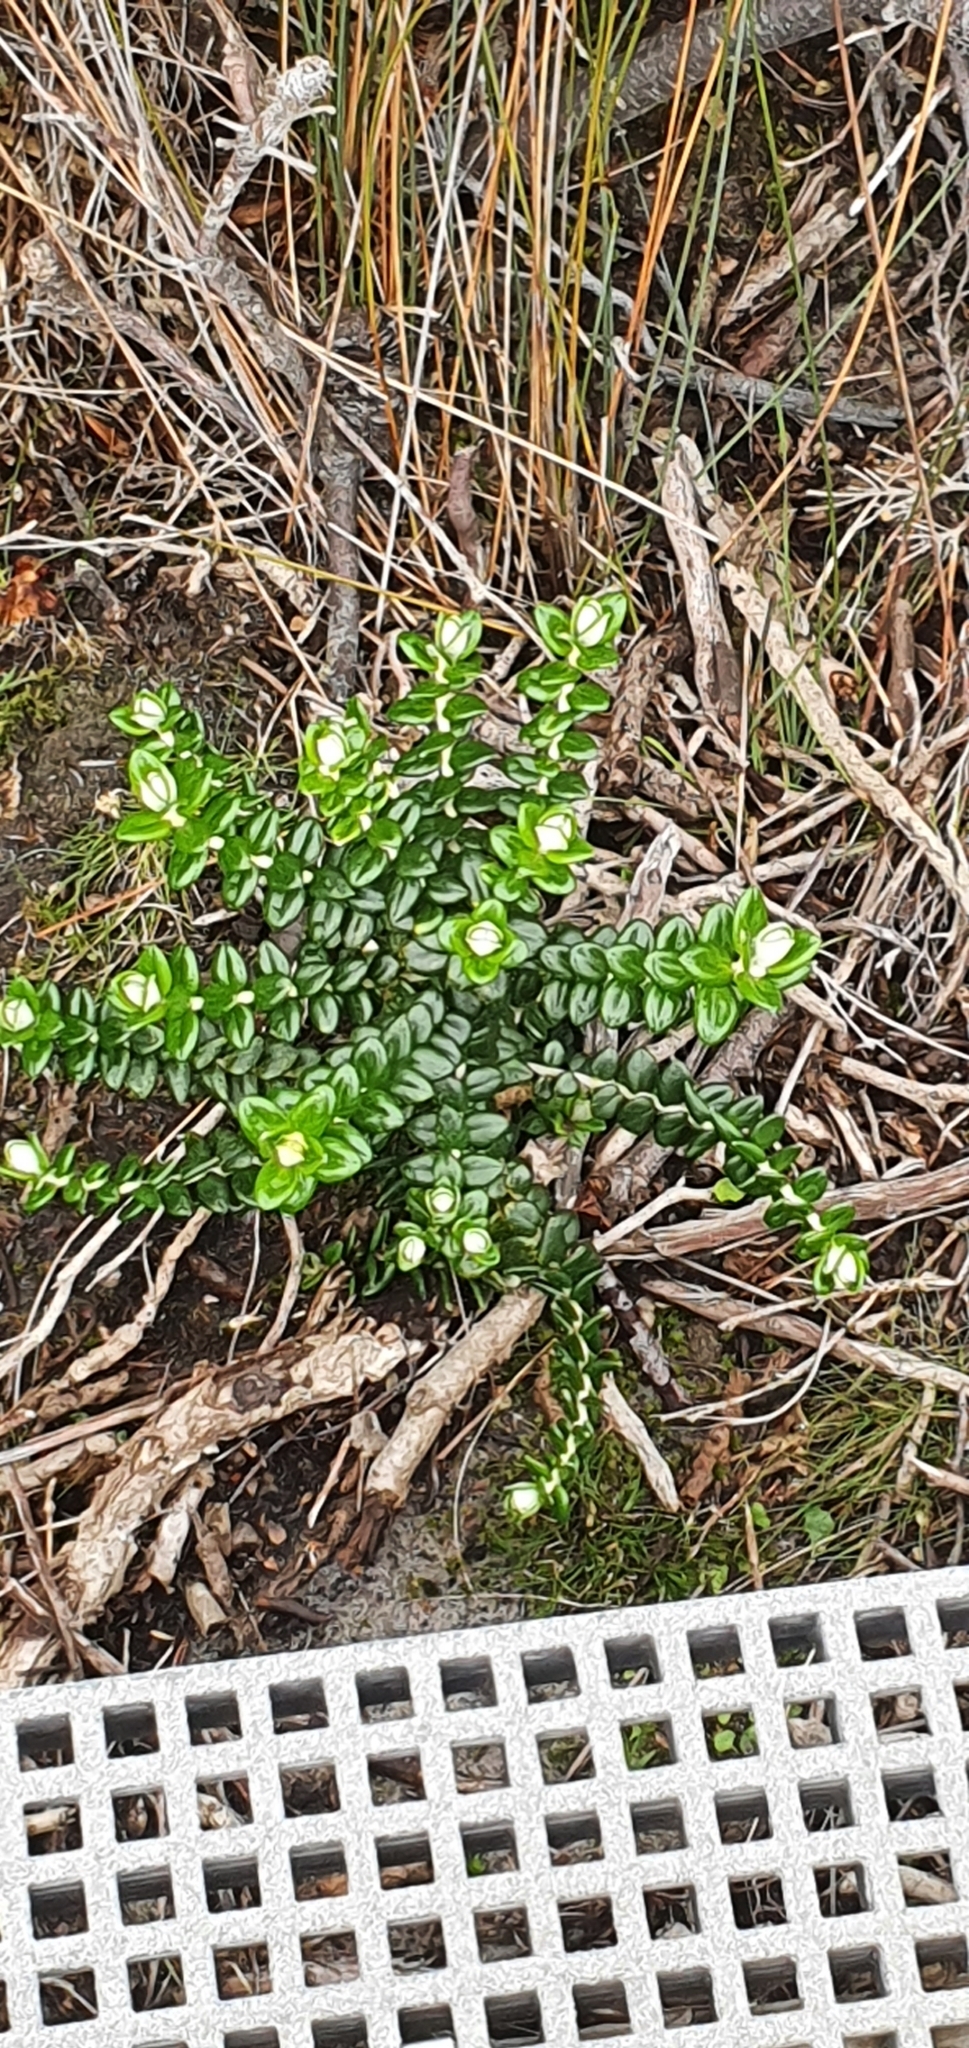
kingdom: Plantae
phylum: Tracheophyta
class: Magnoliopsida
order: Malvales
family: Thymelaeaceae
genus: Pimelea
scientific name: Pimelea nivea
